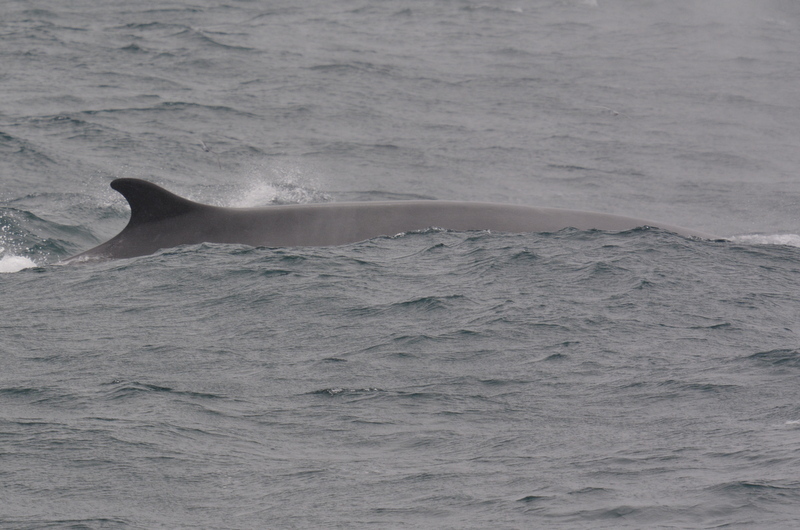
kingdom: Animalia
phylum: Chordata
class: Mammalia
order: Cetacea
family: Balaenopteridae
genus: Balaenoptera
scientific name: Balaenoptera physalus
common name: Fin whale
